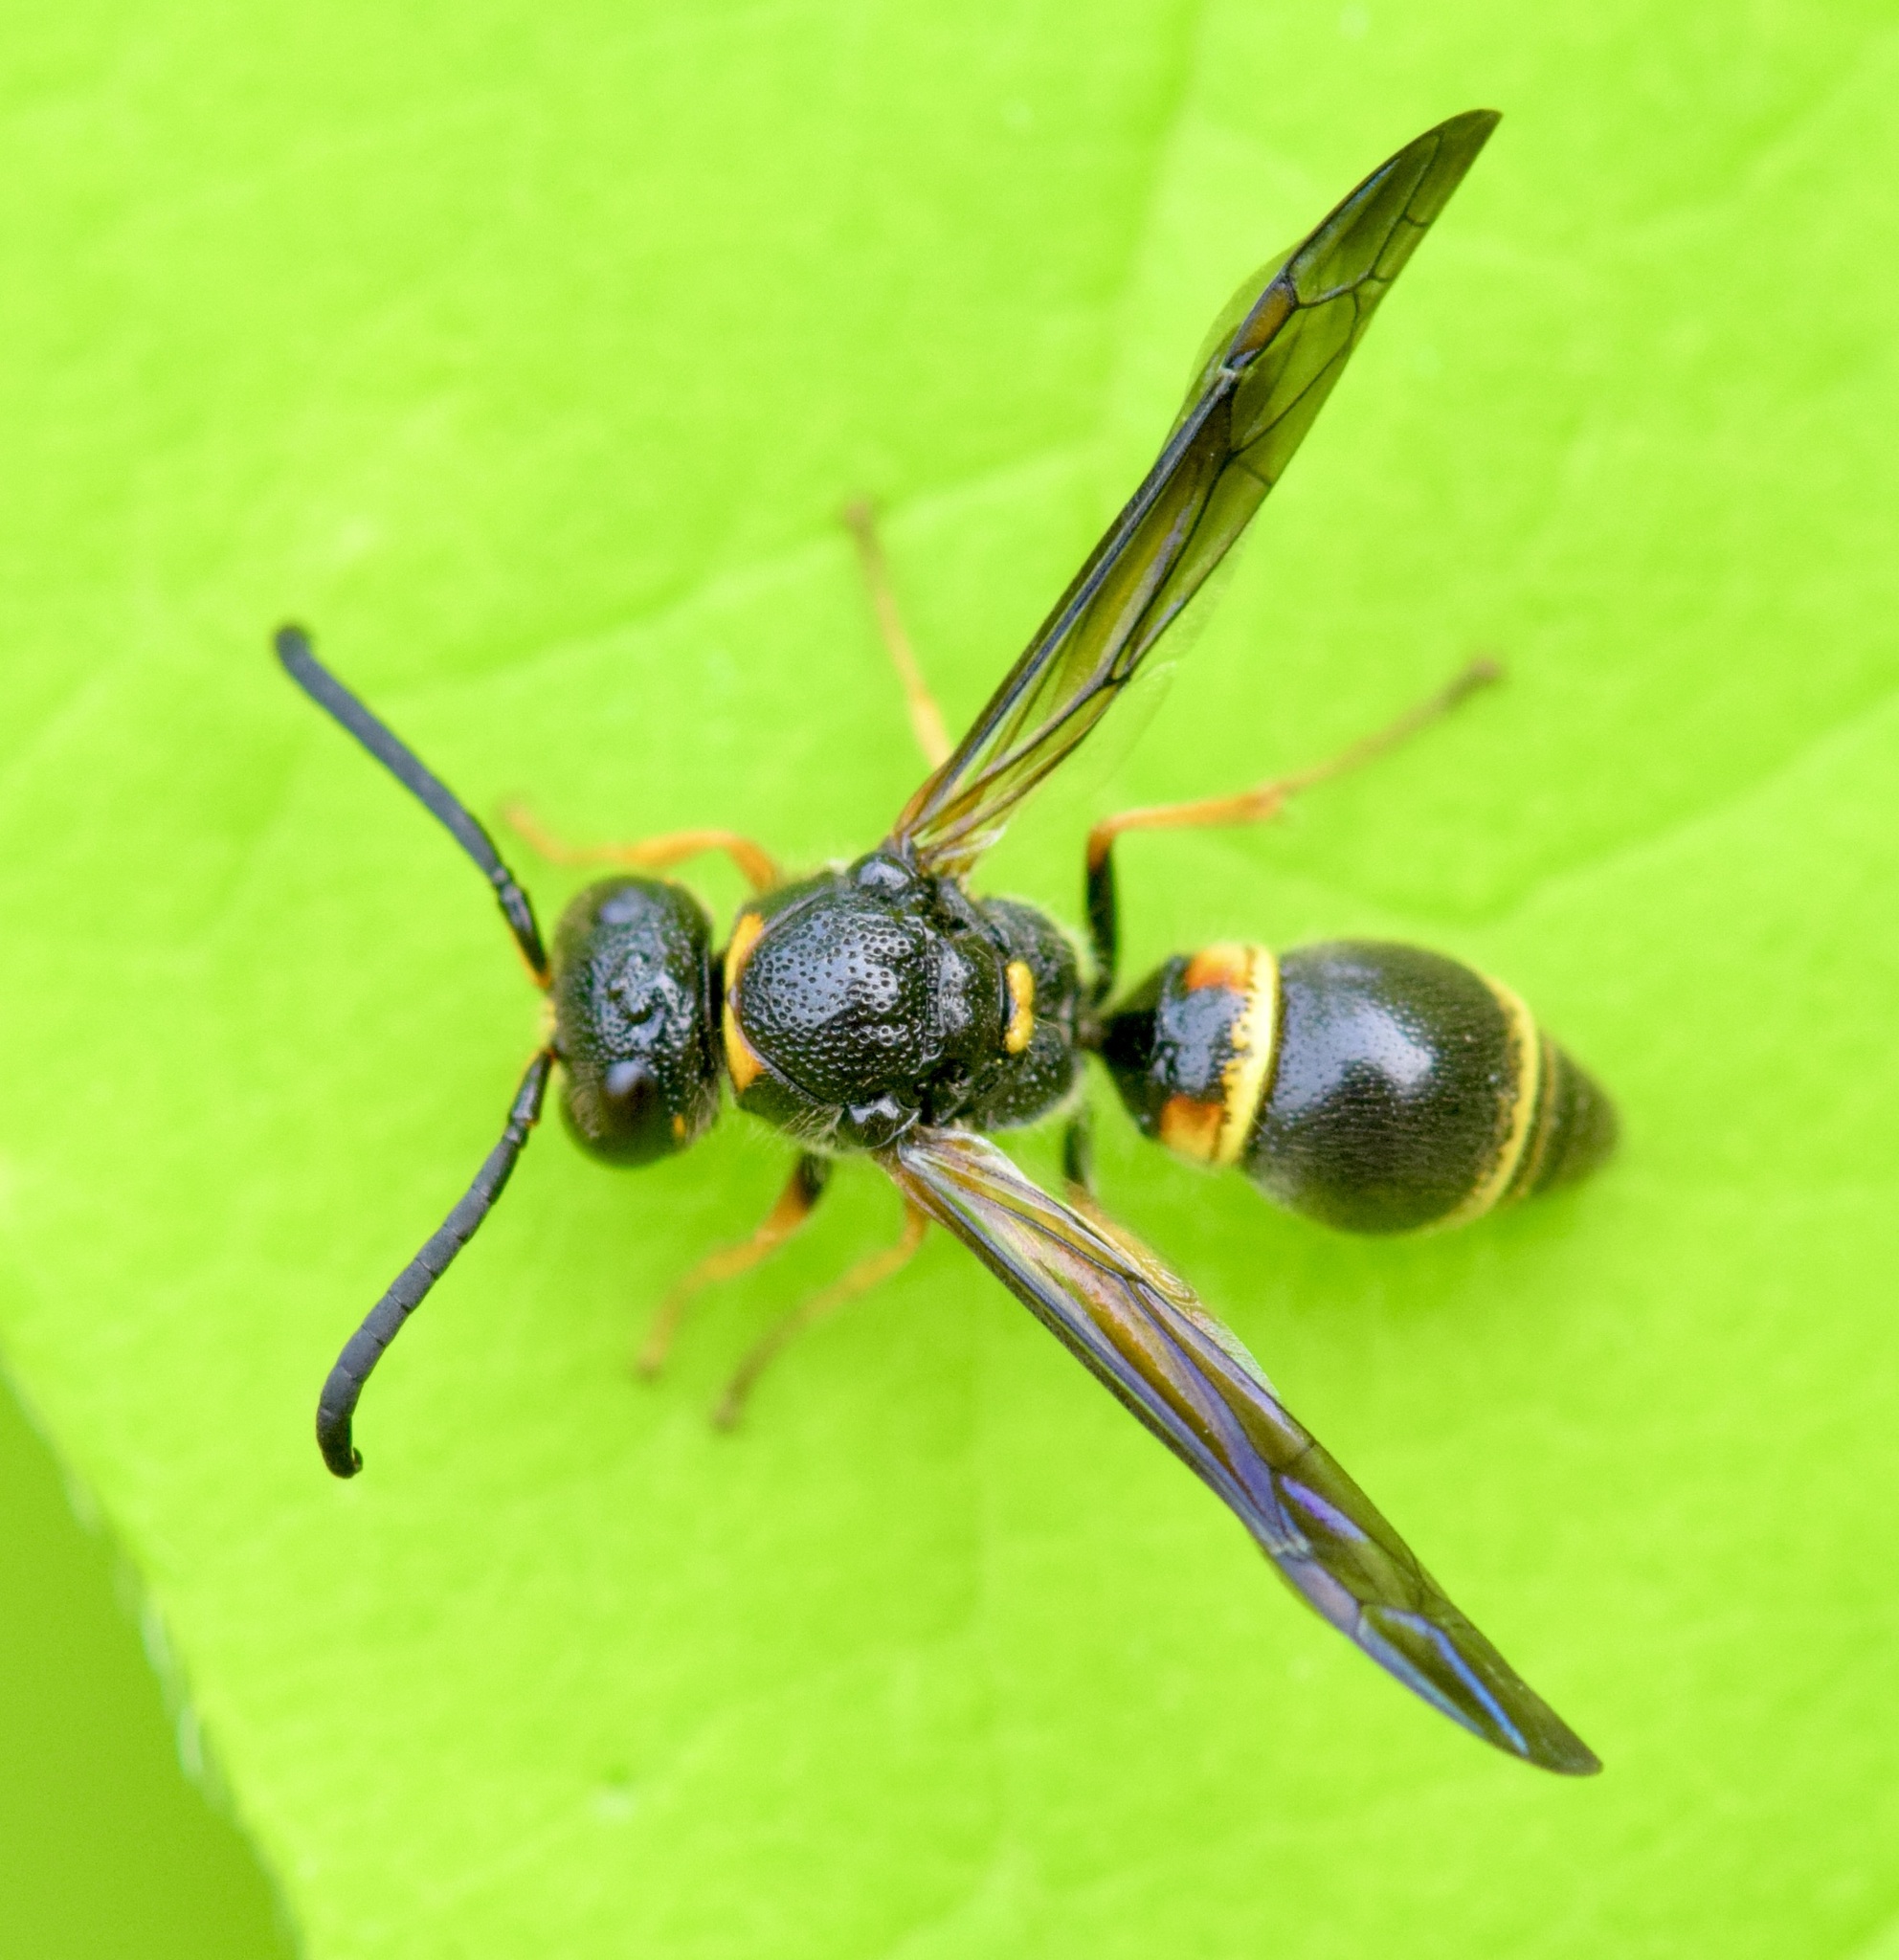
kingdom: Animalia
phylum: Arthropoda
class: Insecta
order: Hymenoptera
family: Vespidae
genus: Ancistrocerus
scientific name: Ancistrocerus unifasciatus
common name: One-banded mason wasp
